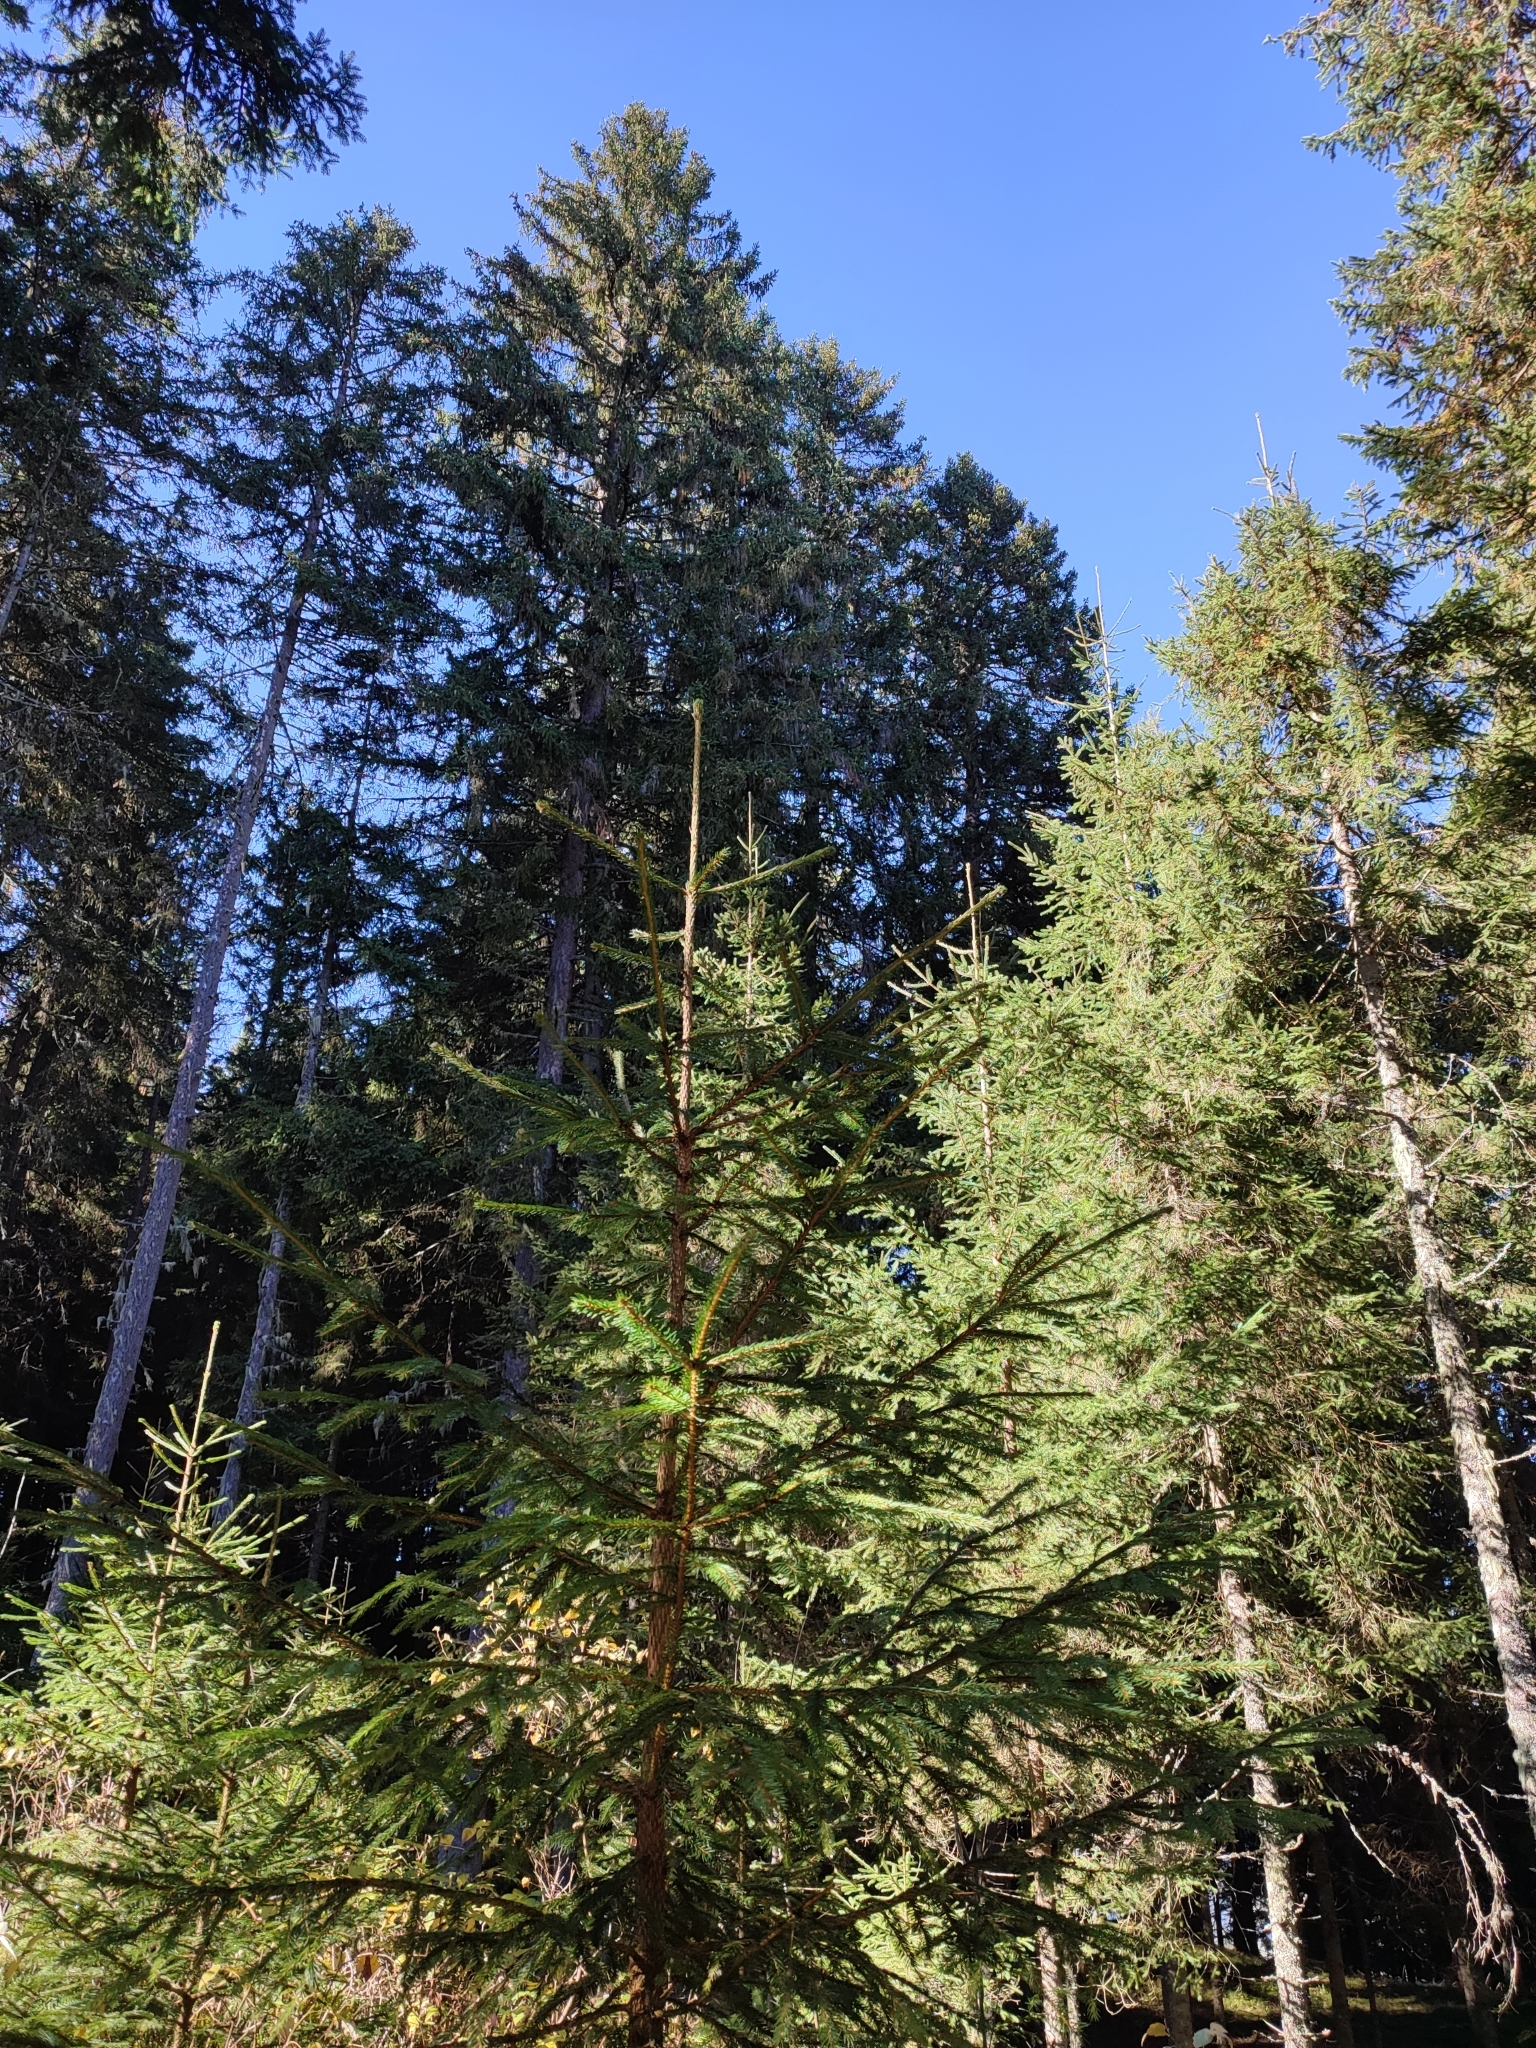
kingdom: Plantae
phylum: Tracheophyta
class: Pinopsida
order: Pinales
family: Pinaceae
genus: Picea
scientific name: Picea abies
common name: Norway spruce
